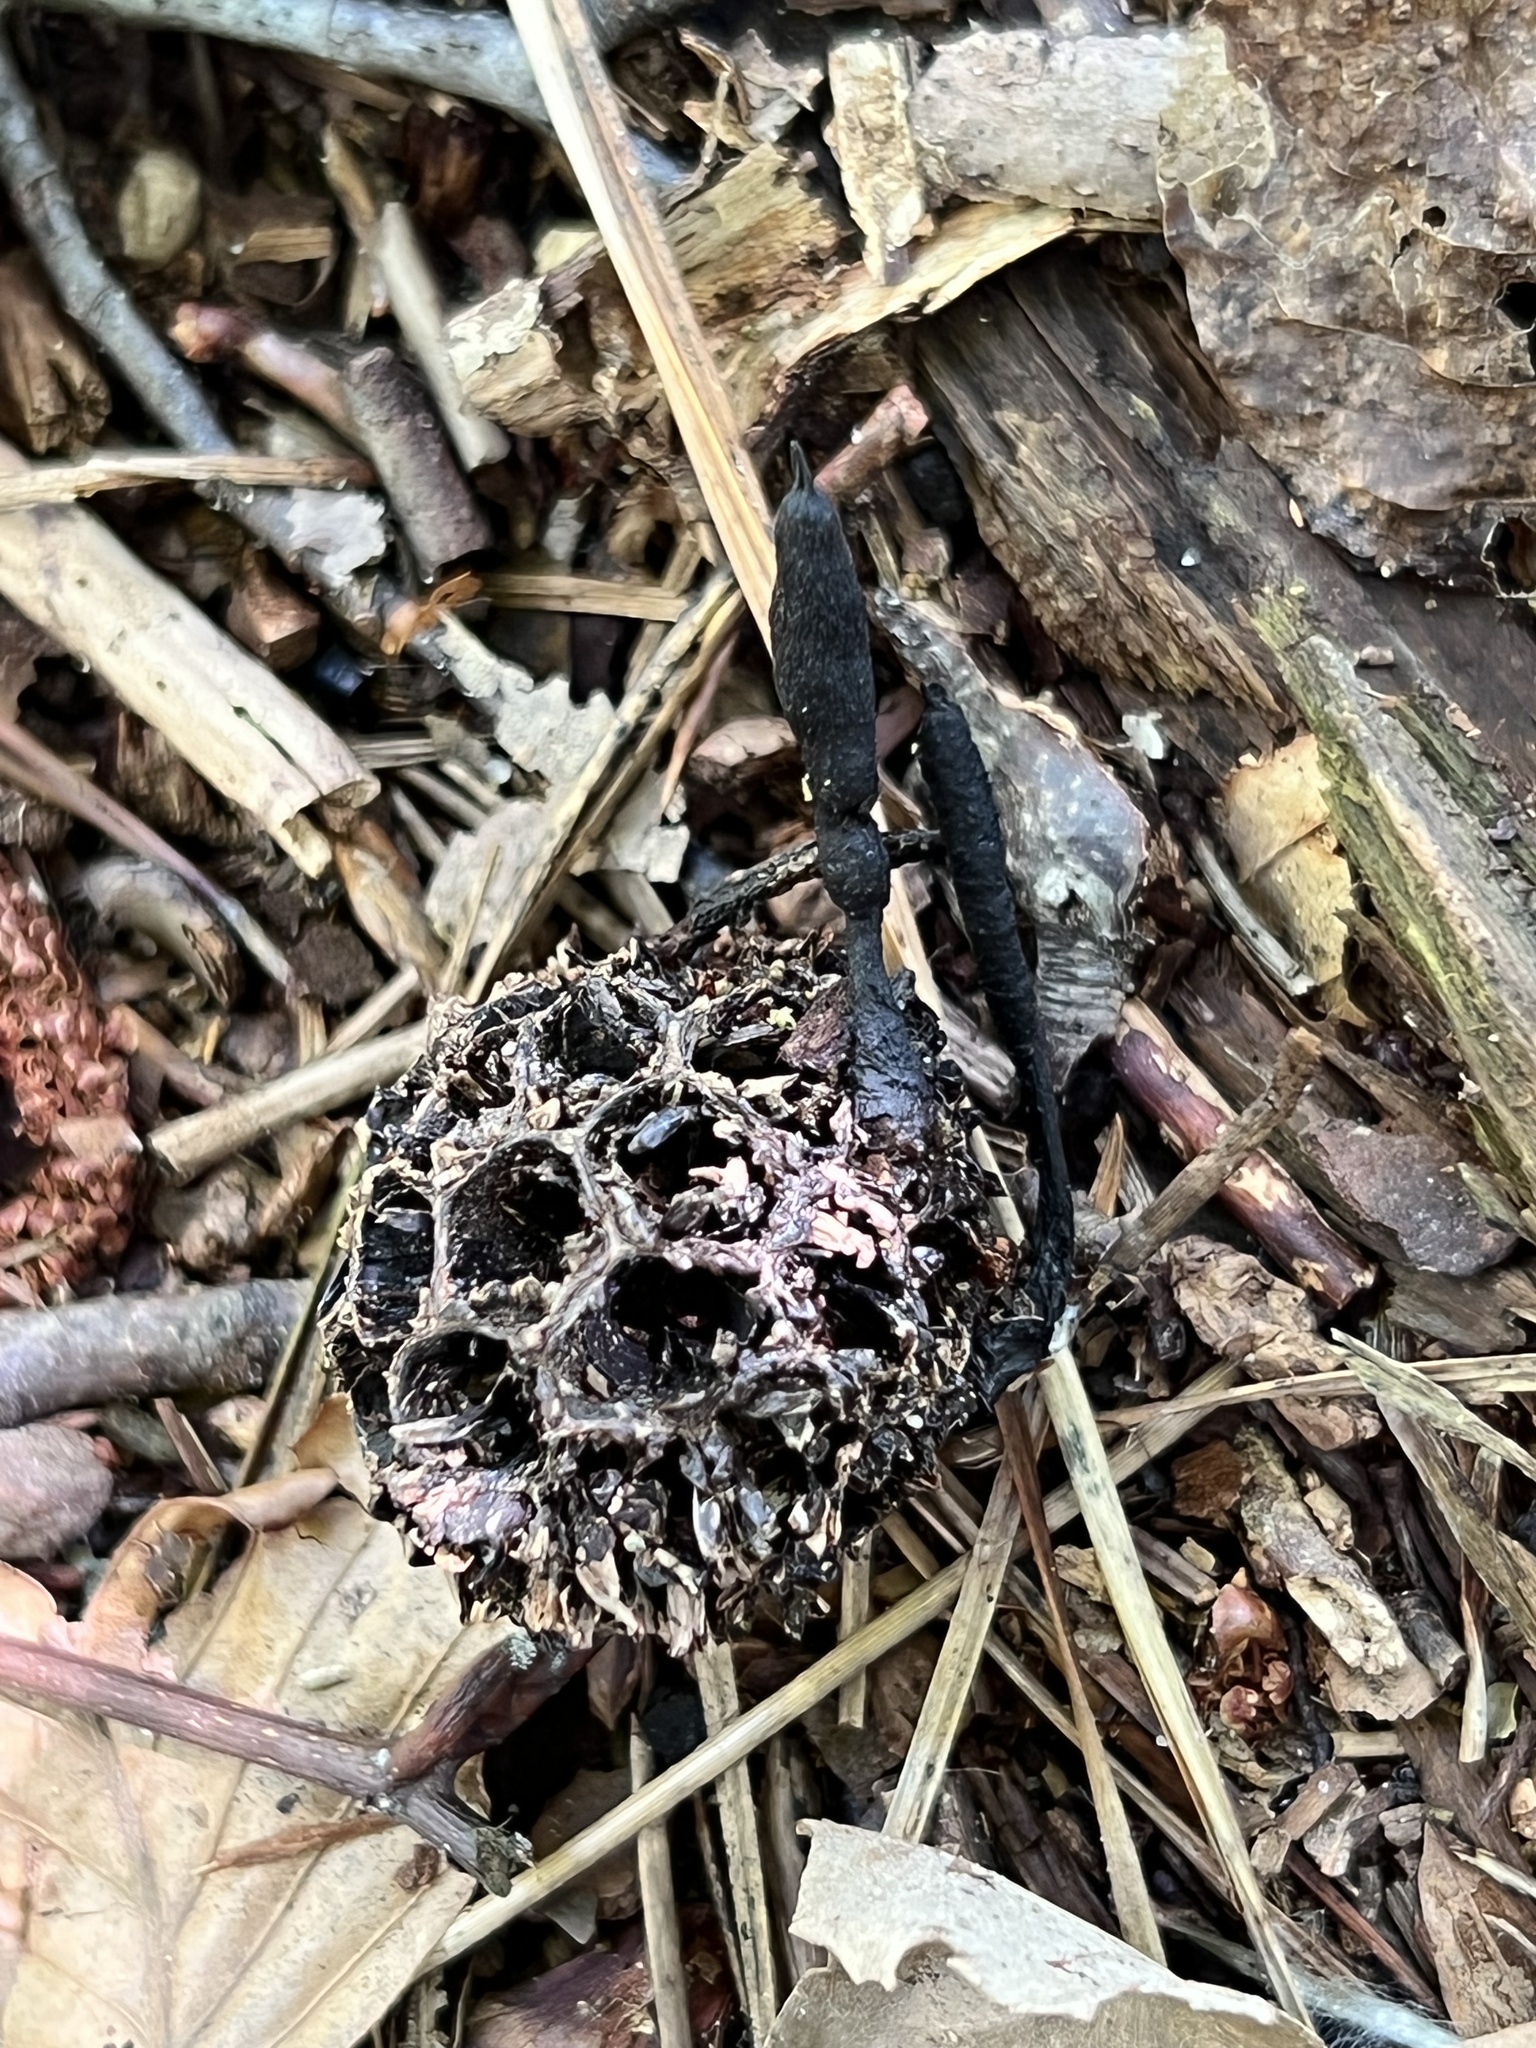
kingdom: Fungi
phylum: Ascomycota
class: Sordariomycetes
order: Xylariales
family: Xylariaceae
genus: Xylaria
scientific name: Xylaria liquidambaris
